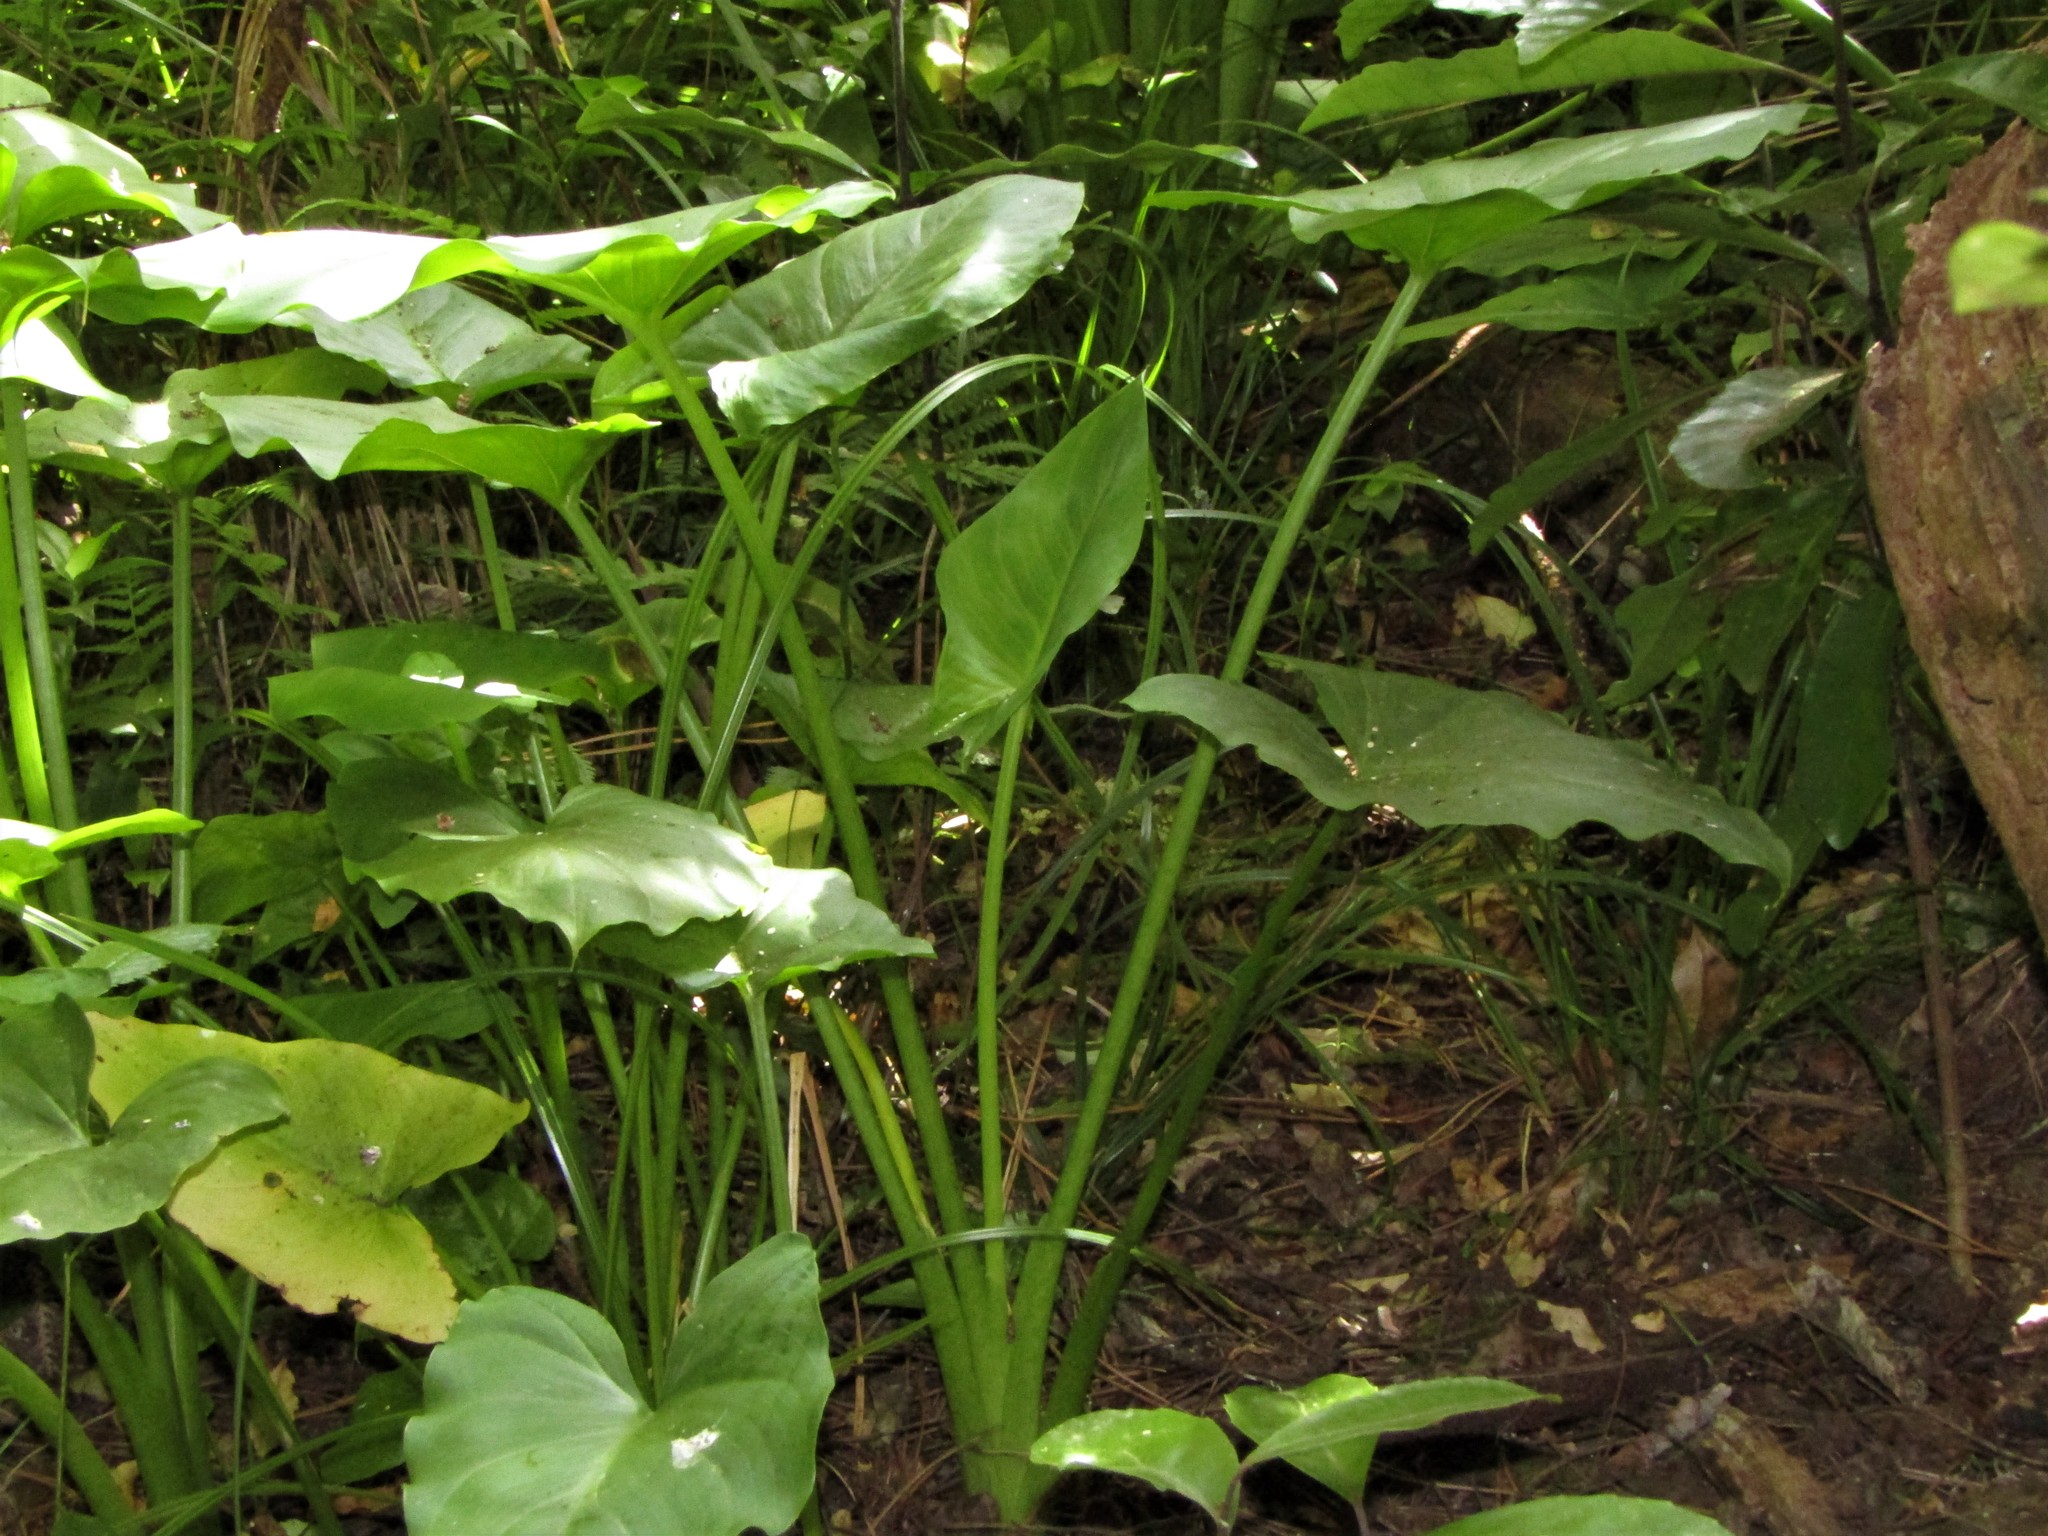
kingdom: Plantae
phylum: Tracheophyta
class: Liliopsida
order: Alismatales
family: Araceae
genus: Zantedeschia
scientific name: Zantedeschia aethiopica
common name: Altar-lily
